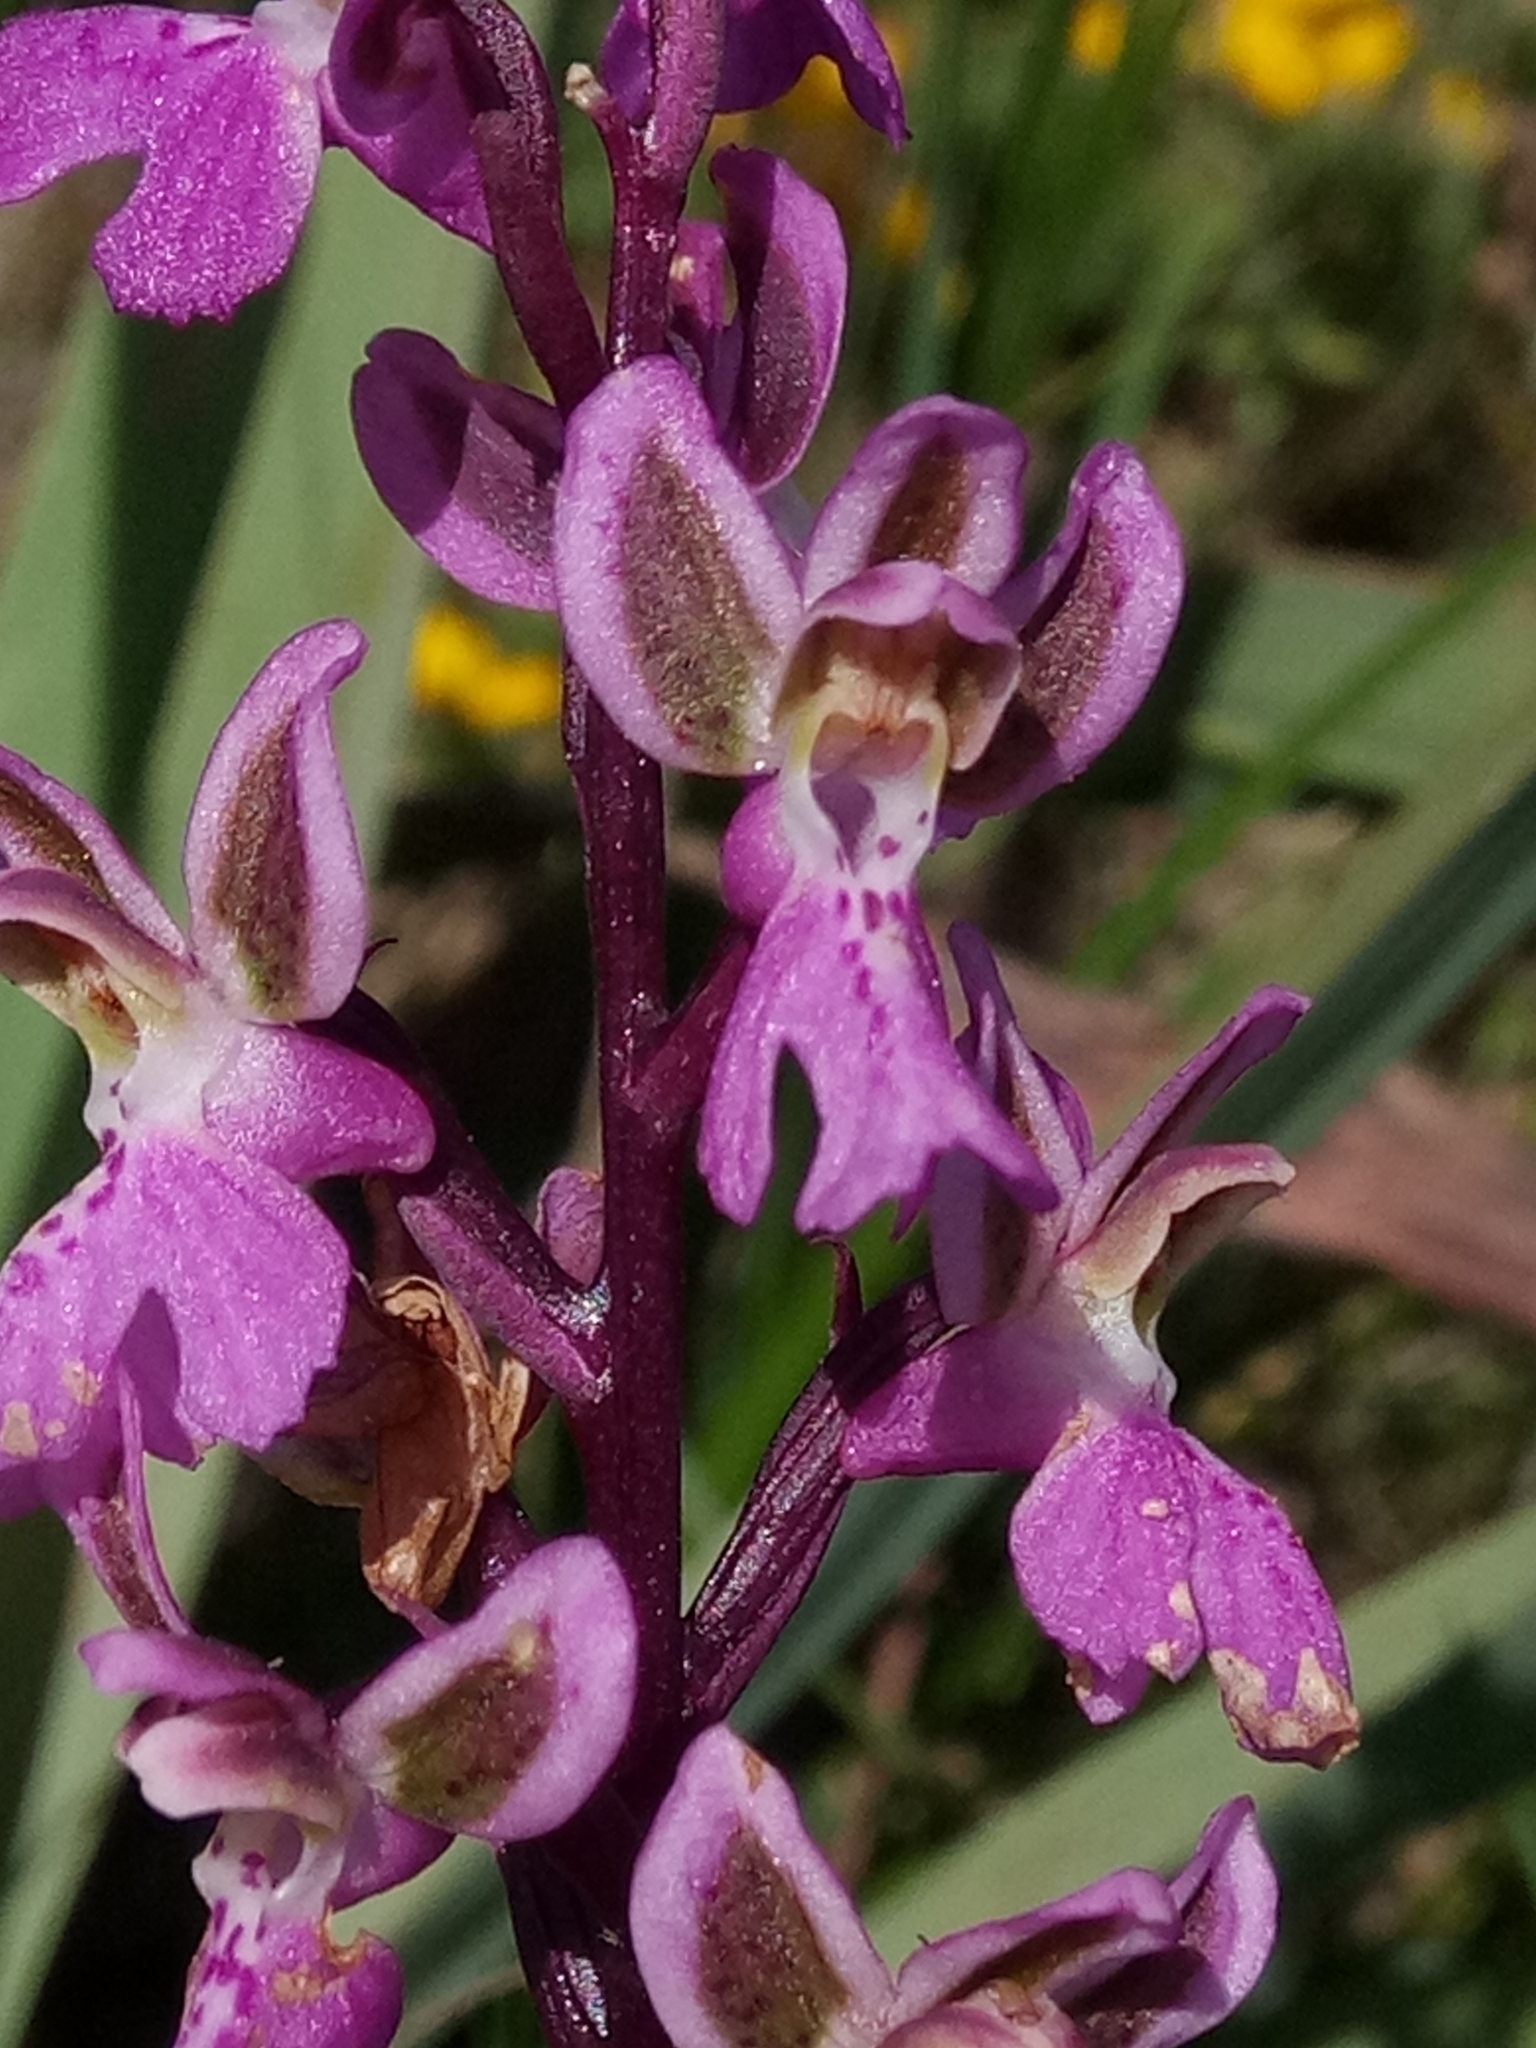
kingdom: Plantae
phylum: Tracheophyta
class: Liliopsida
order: Asparagales
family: Orchidaceae
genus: Orchis
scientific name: Orchis patens
